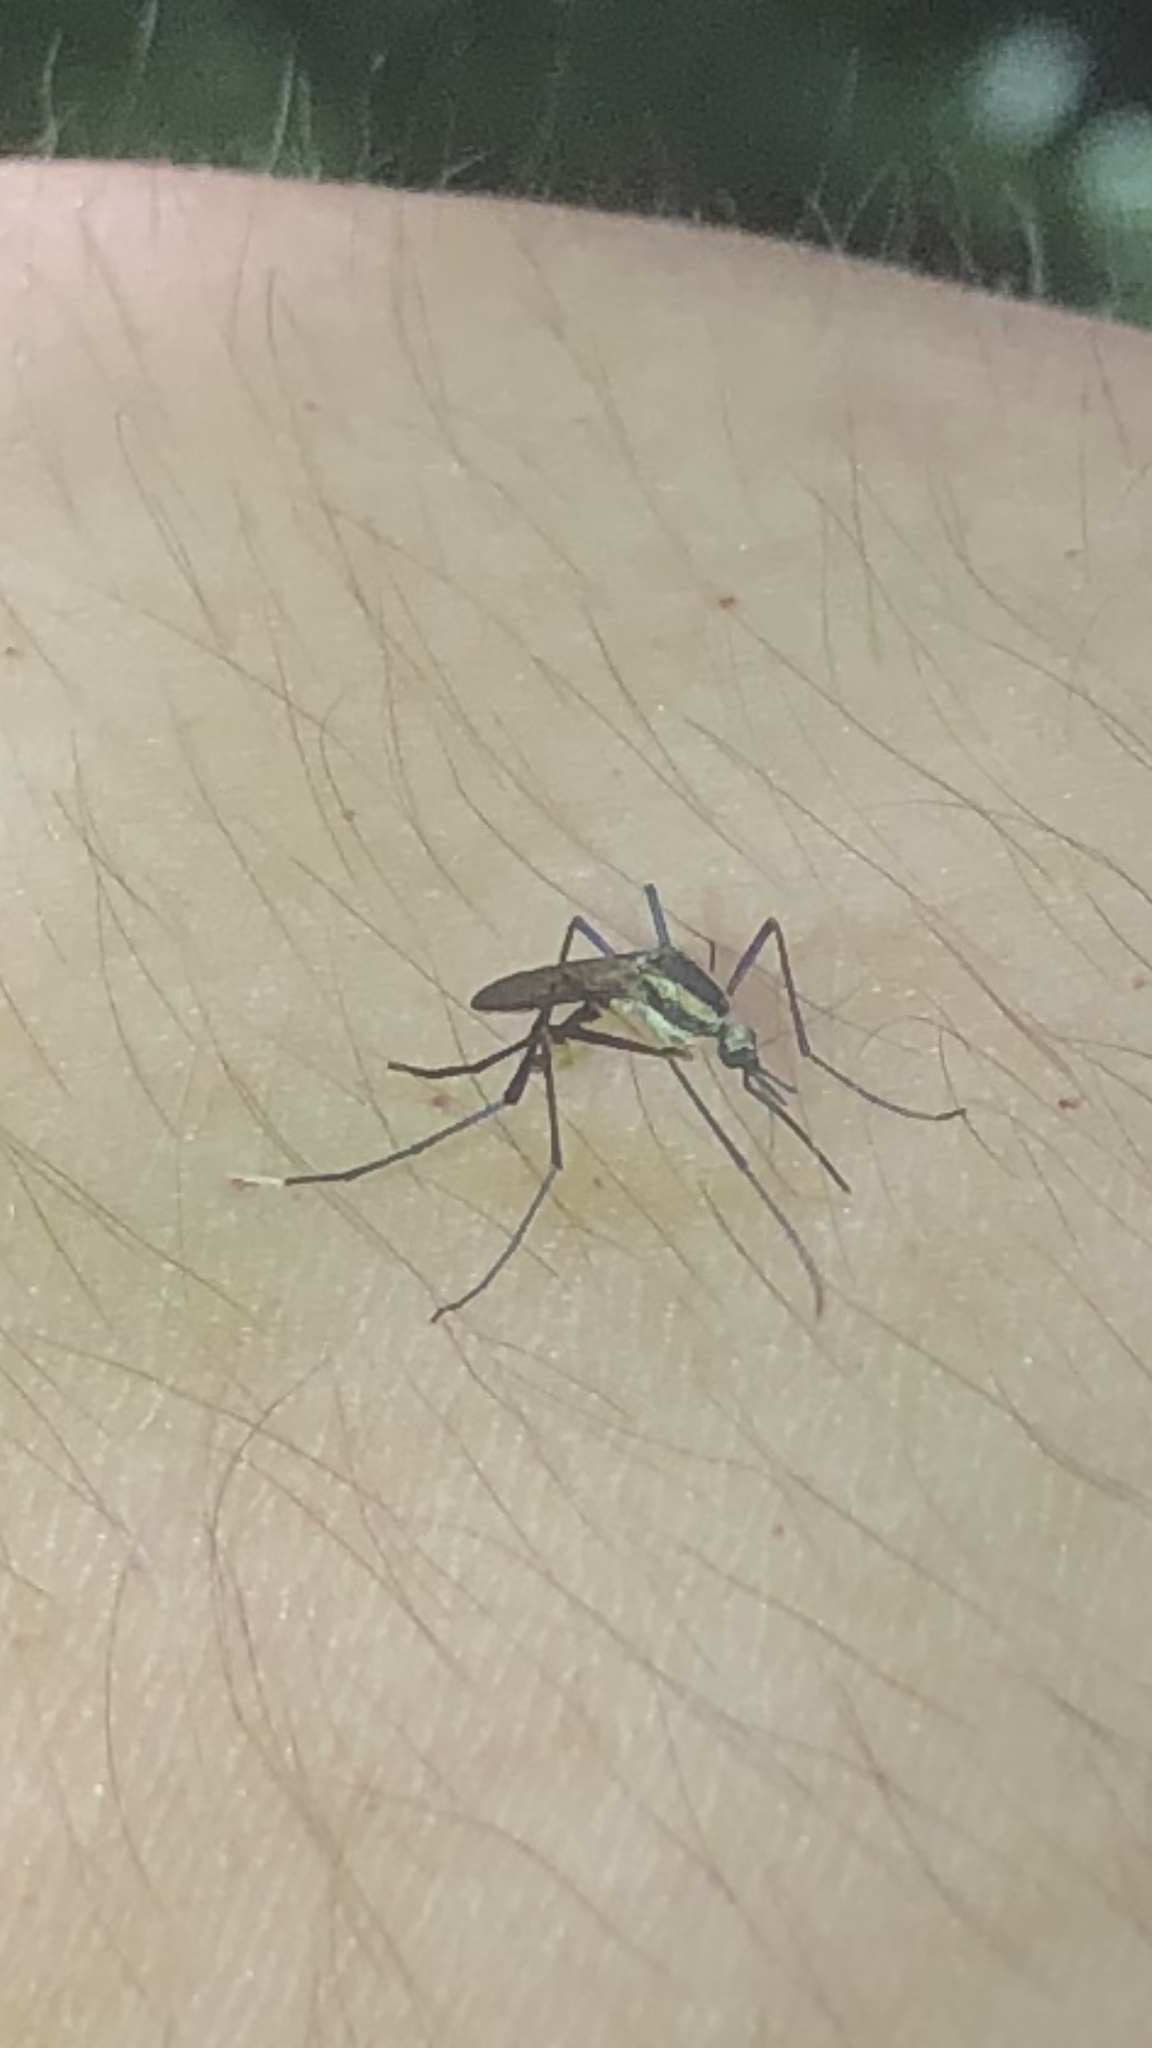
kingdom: Animalia
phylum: Arthropoda
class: Insecta
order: Diptera
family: Culicidae
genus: Psorophora
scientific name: Psorophora longipalpus
